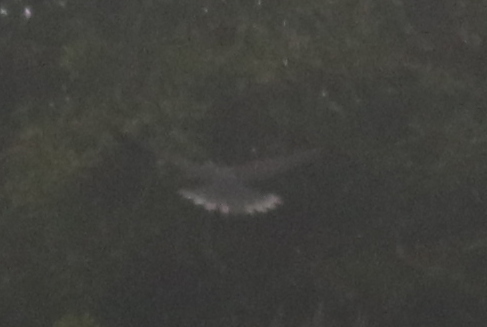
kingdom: Animalia
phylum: Chordata
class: Aves
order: Columbiformes
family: Columbidae
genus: Columba
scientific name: Columba junoniae
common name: Laurel pigeon
